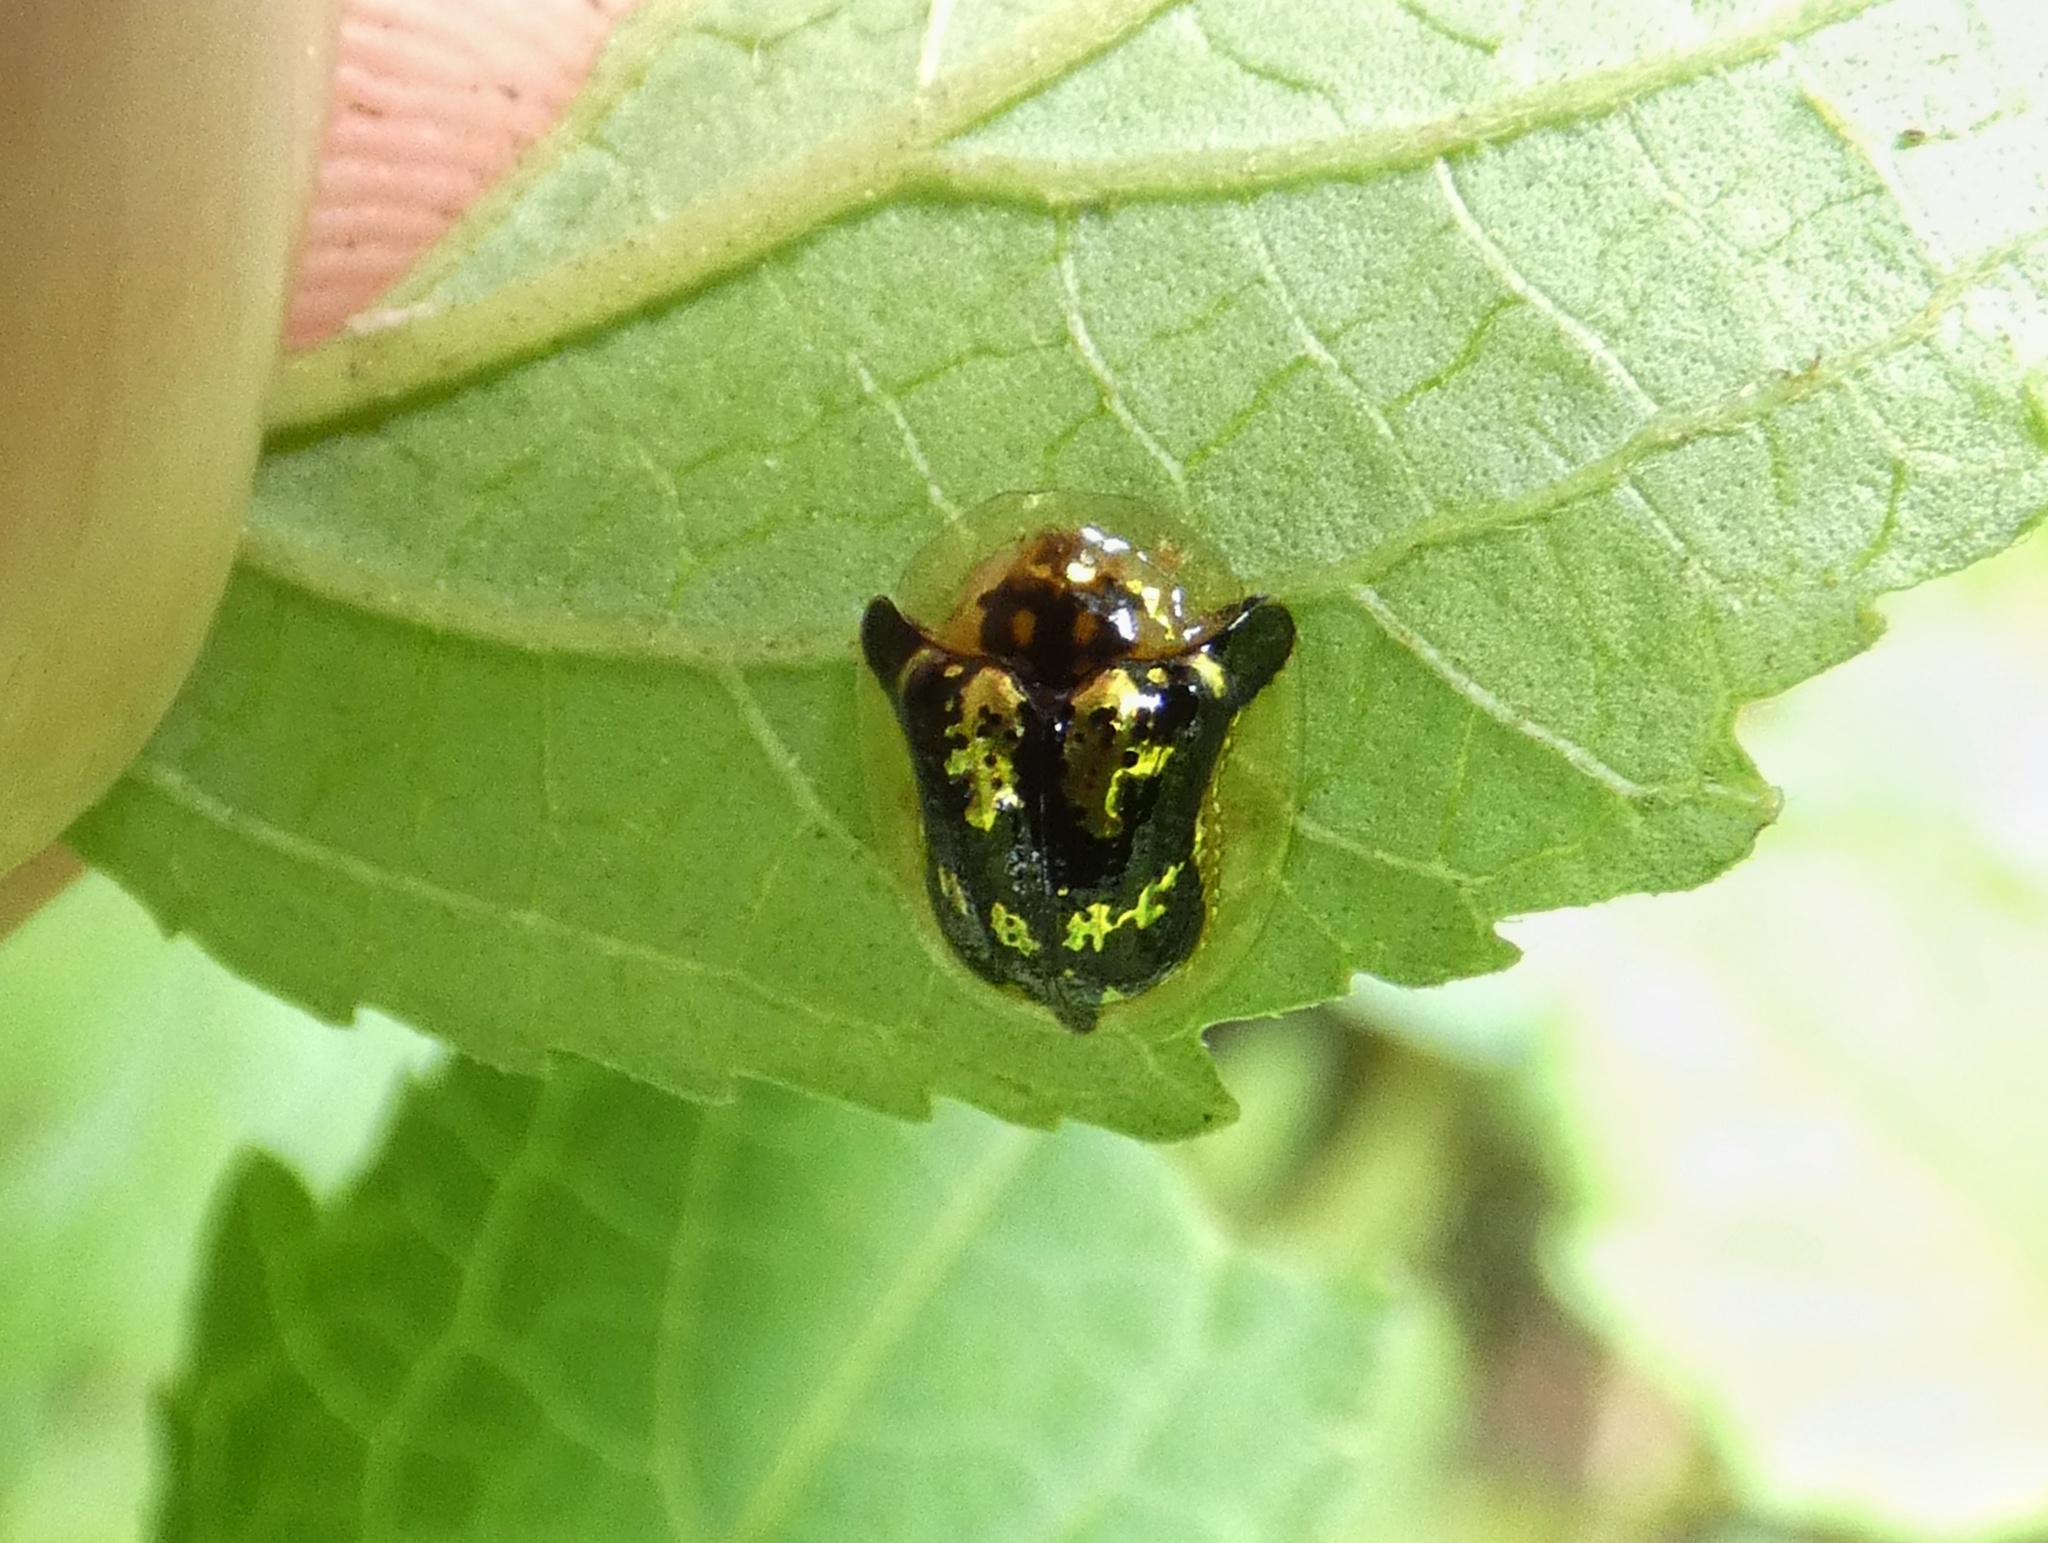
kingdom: Animalia
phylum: Arthropoda
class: Insecta
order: Coleoptera
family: Chrysomelidae
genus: Deloyala
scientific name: Deloyala fuliginosa
